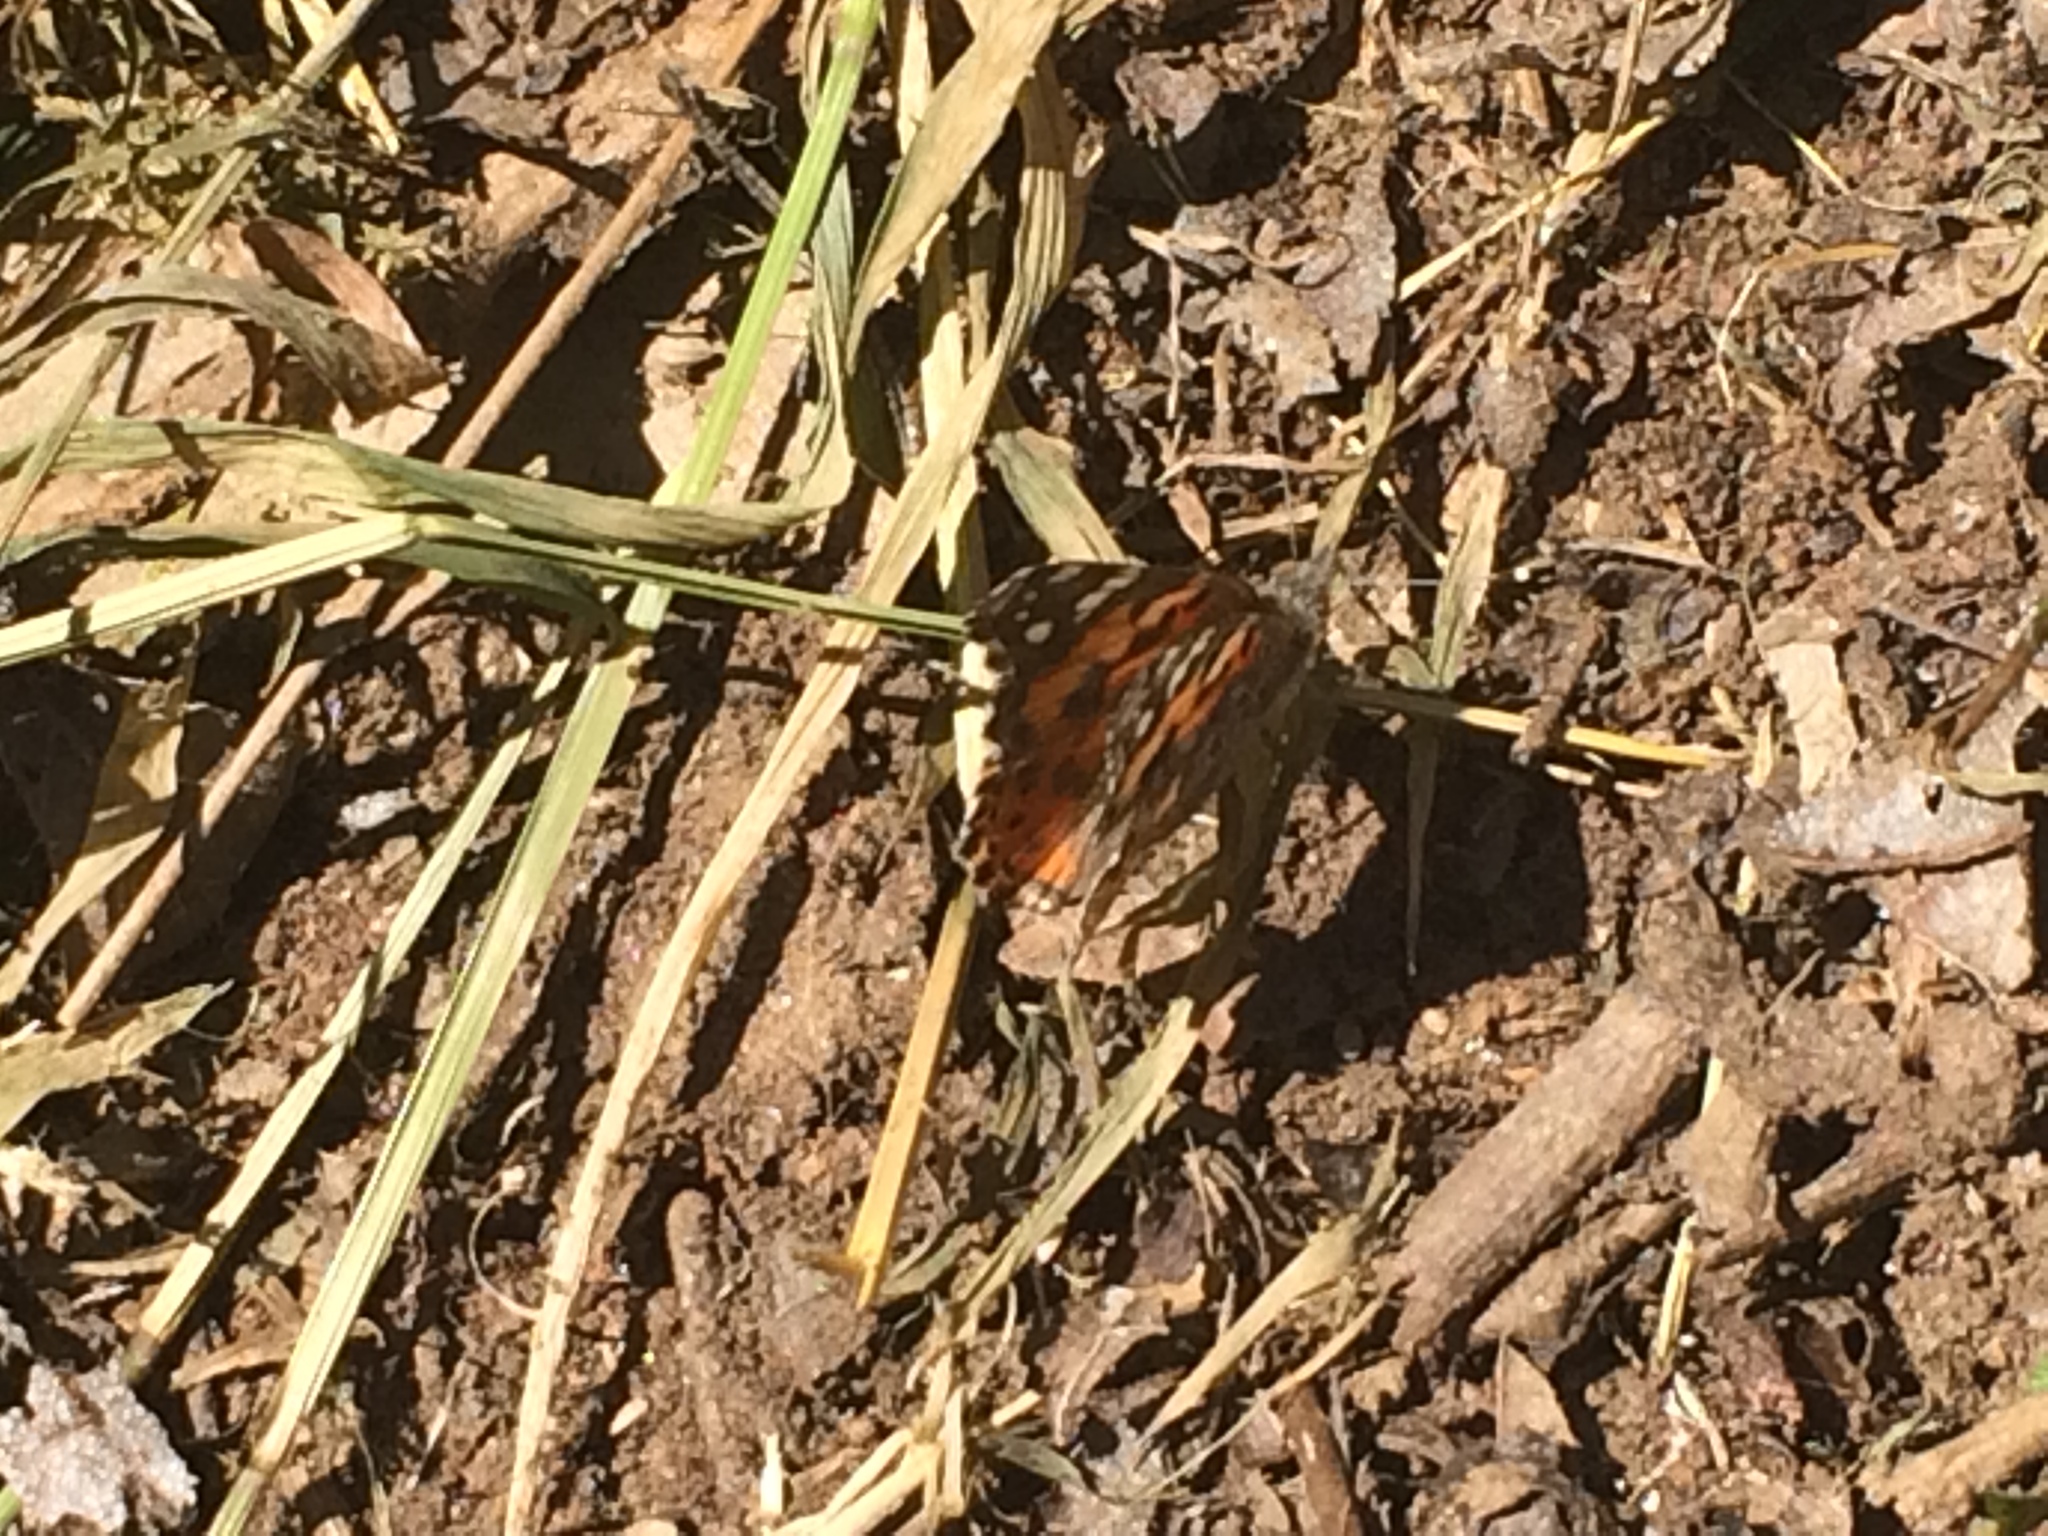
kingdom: Animalia
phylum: Arthropoda
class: Insecta
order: Lepidoptera
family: Nymphalidae
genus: Vanessa
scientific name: Vanessa cardui
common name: Painted lady
